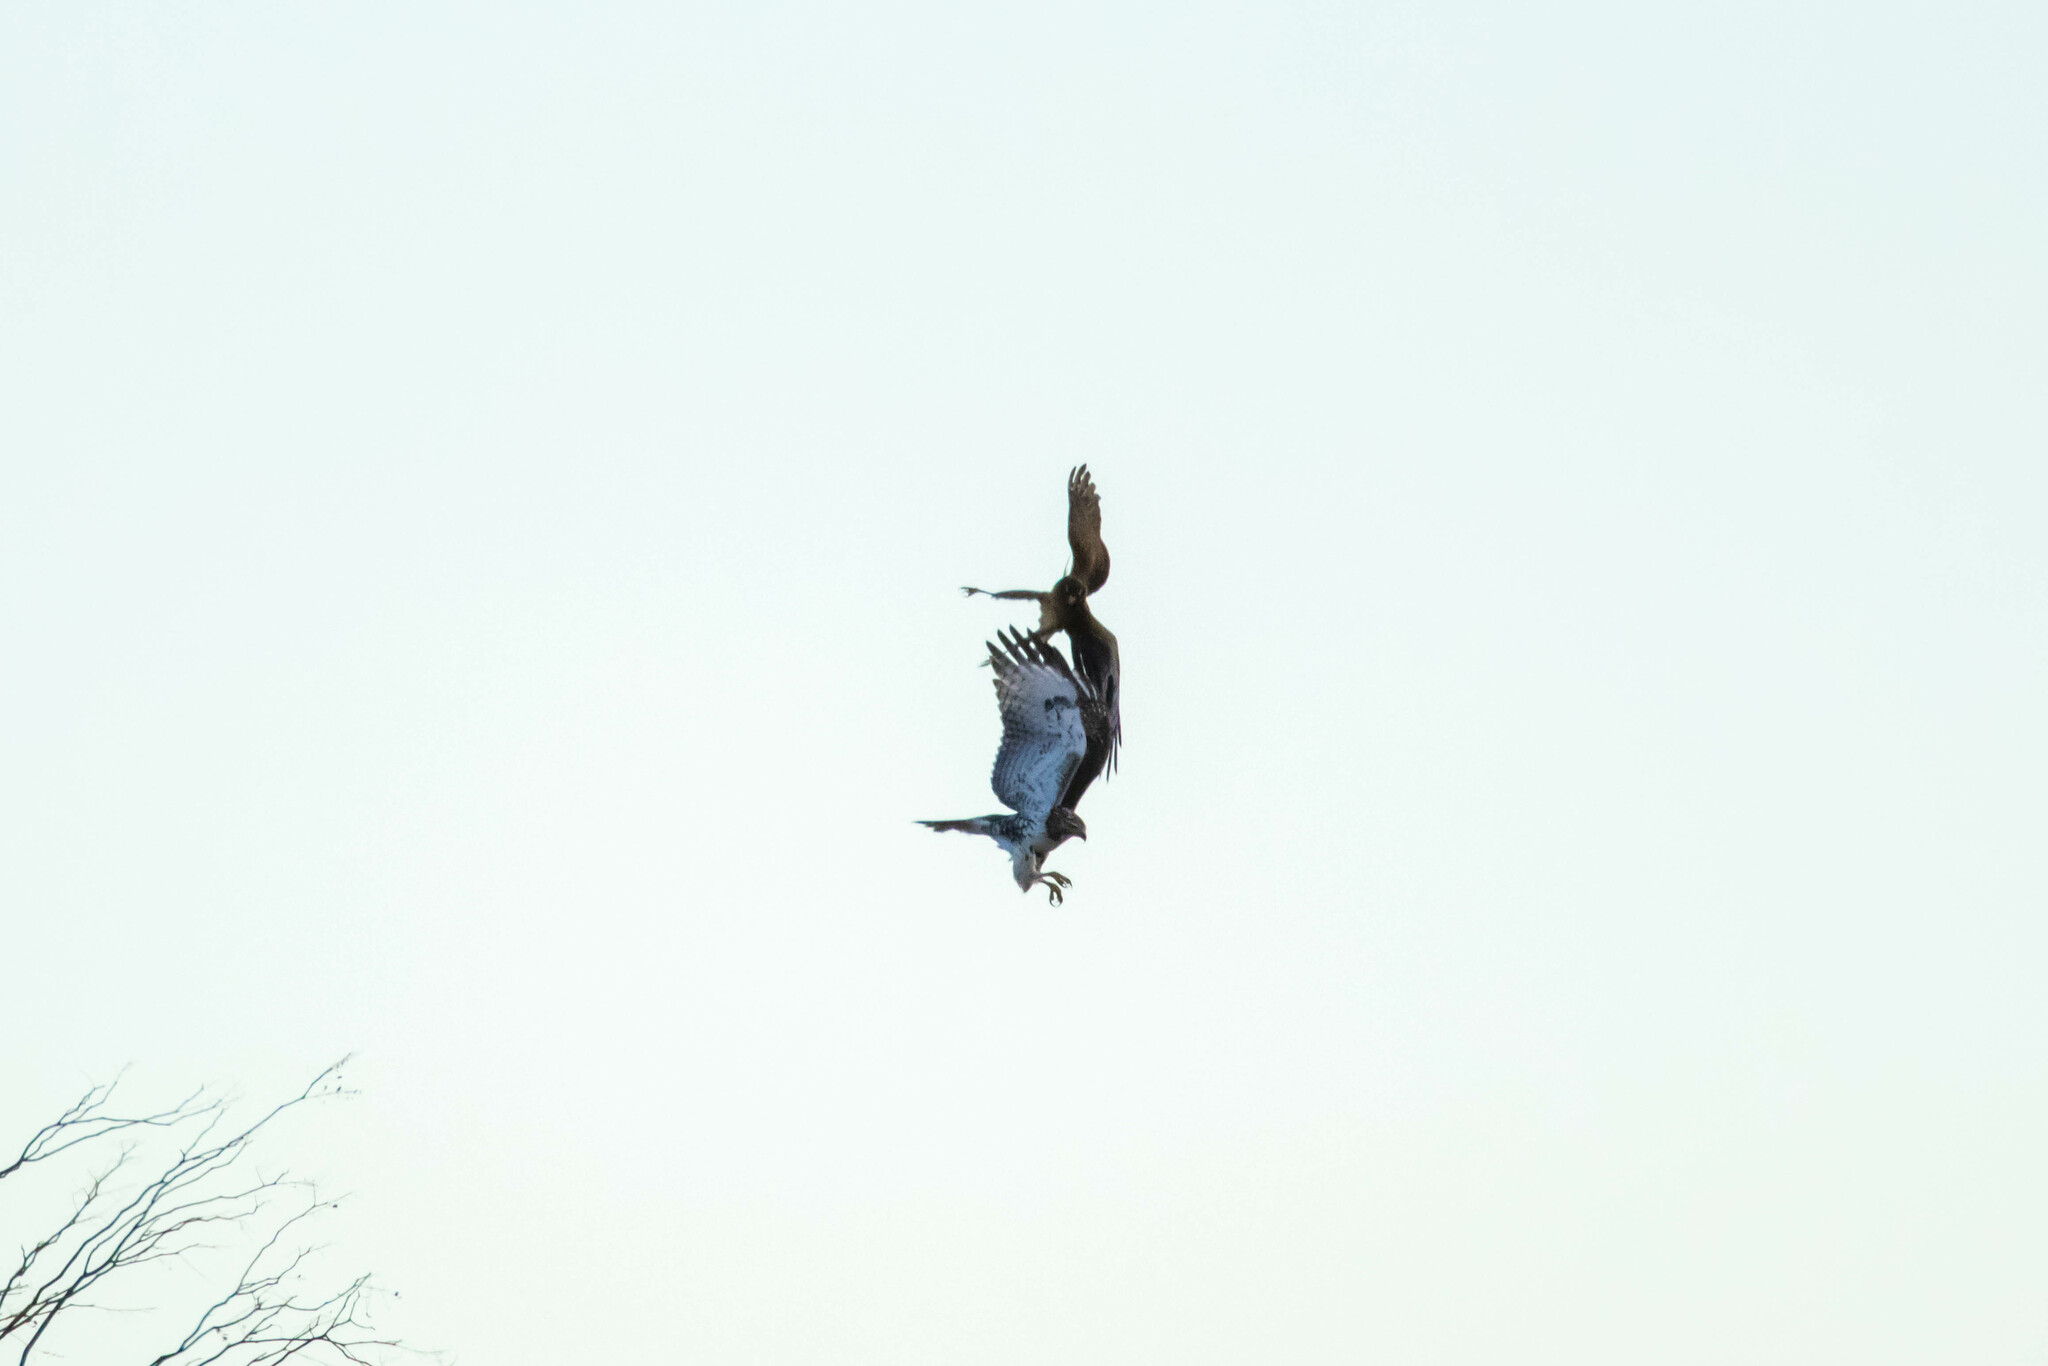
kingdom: Animalia
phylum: Chordata
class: Aves
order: Accipitriformes
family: Accipitridae
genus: Buteo
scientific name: Buteo jamaicensis
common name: Red-tailed hawk
